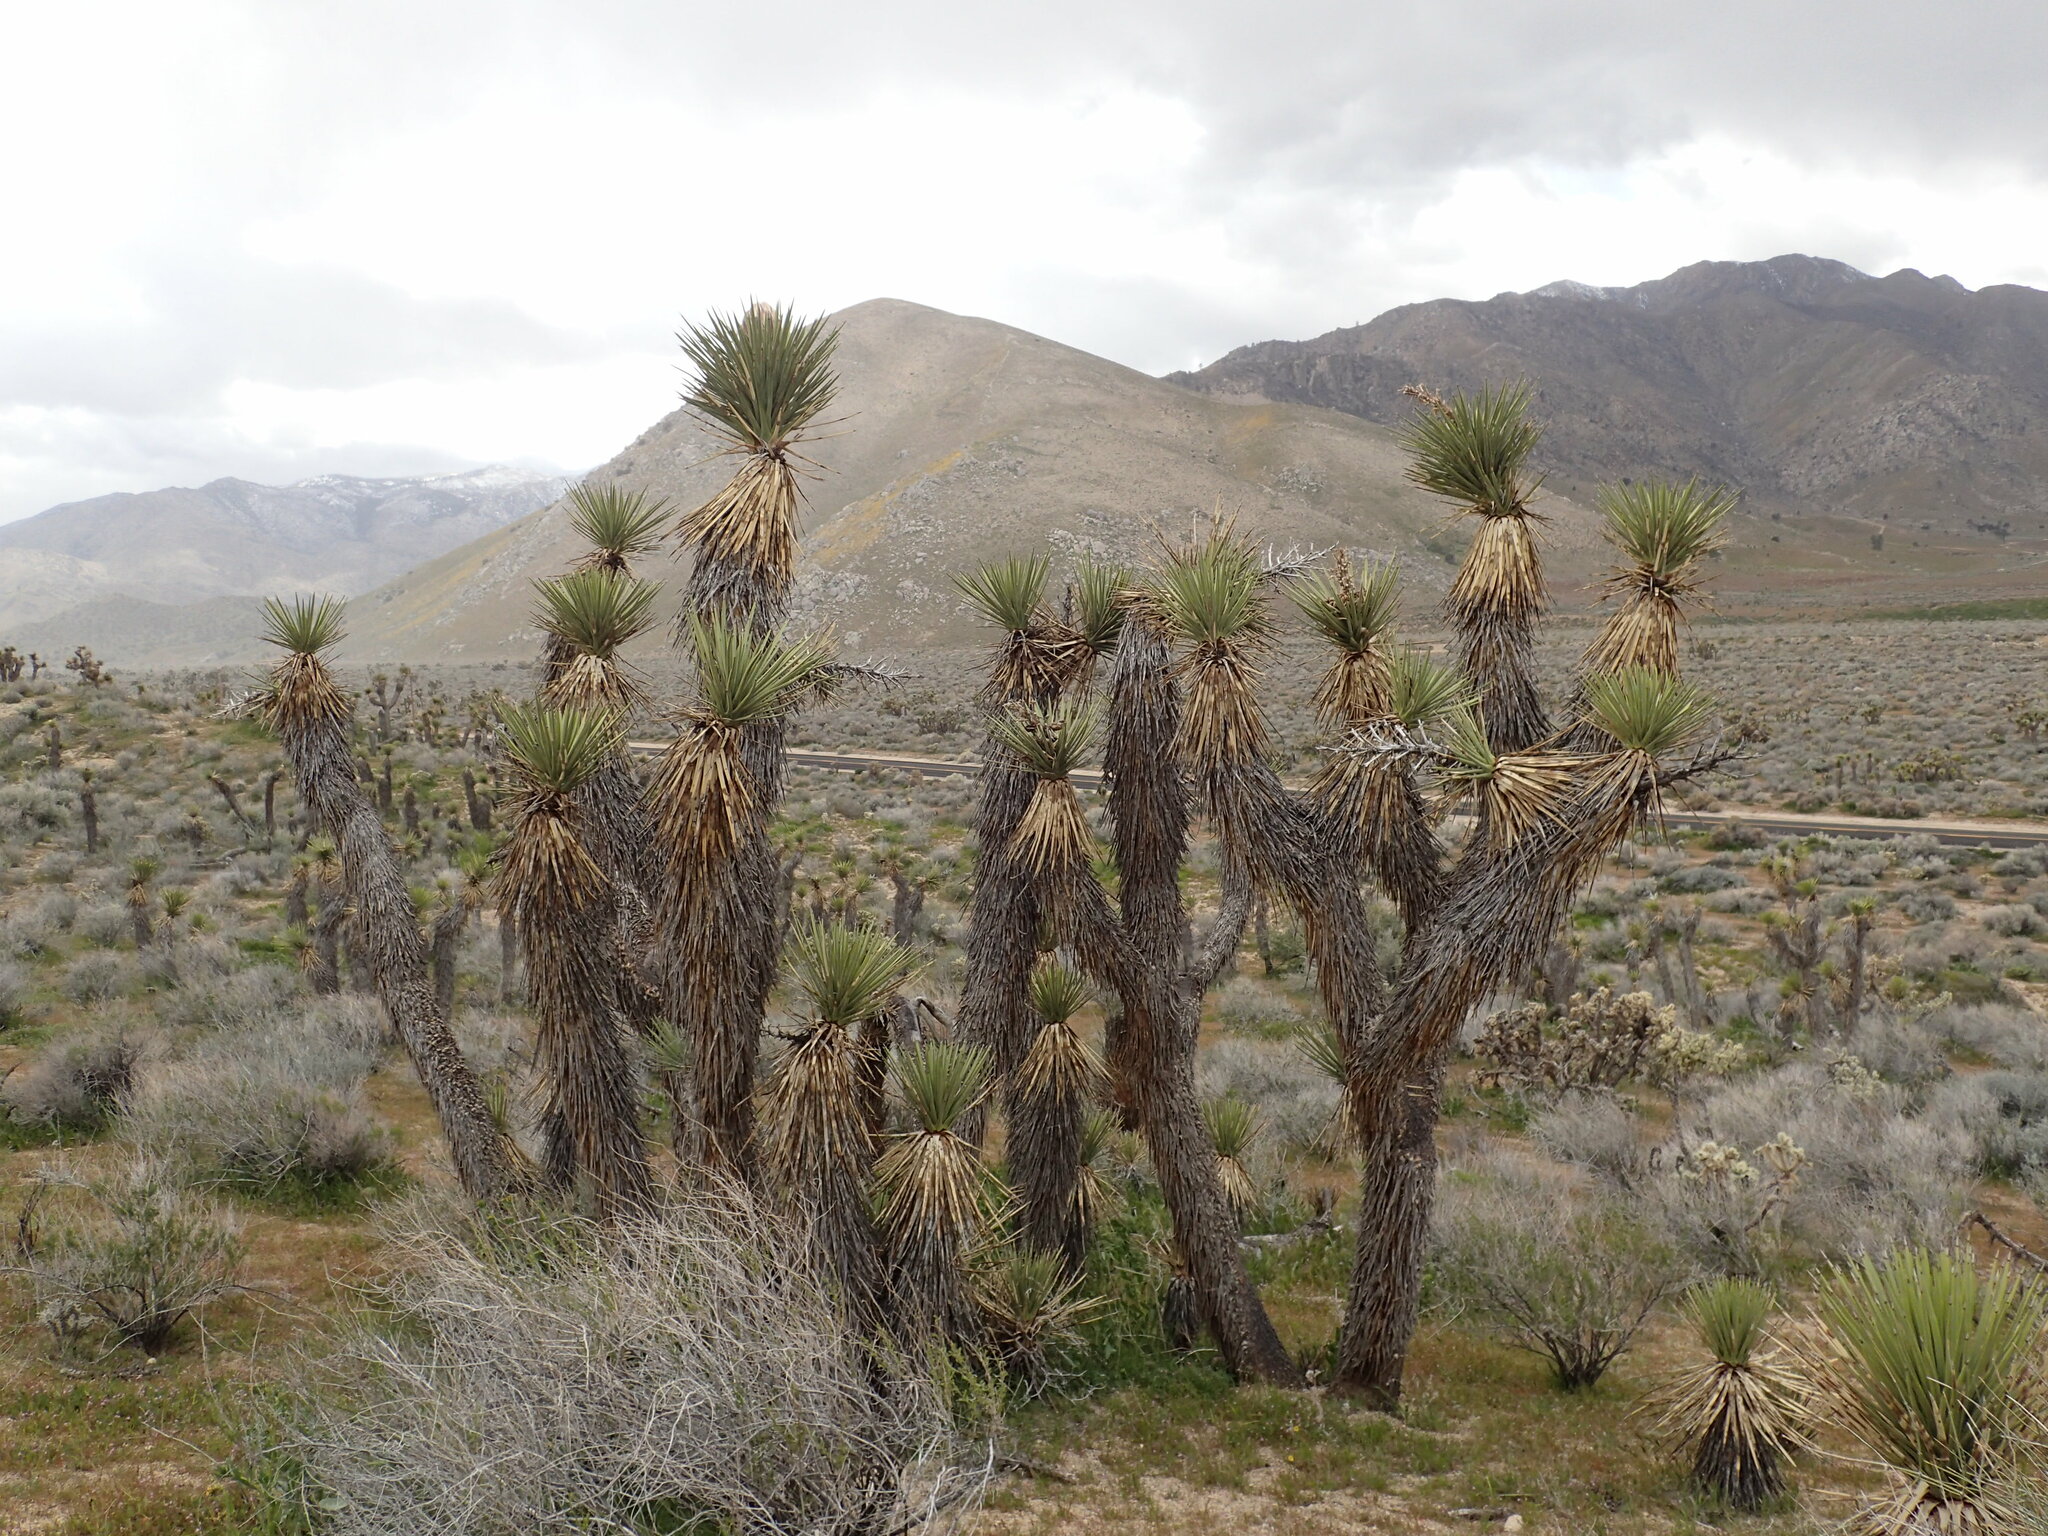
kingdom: Plantae
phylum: Tracheophyta
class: Liliopsida
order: Asparagales
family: Asparagaceae
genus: Yucca
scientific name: Yucca brevifolia
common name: Joshua tree
